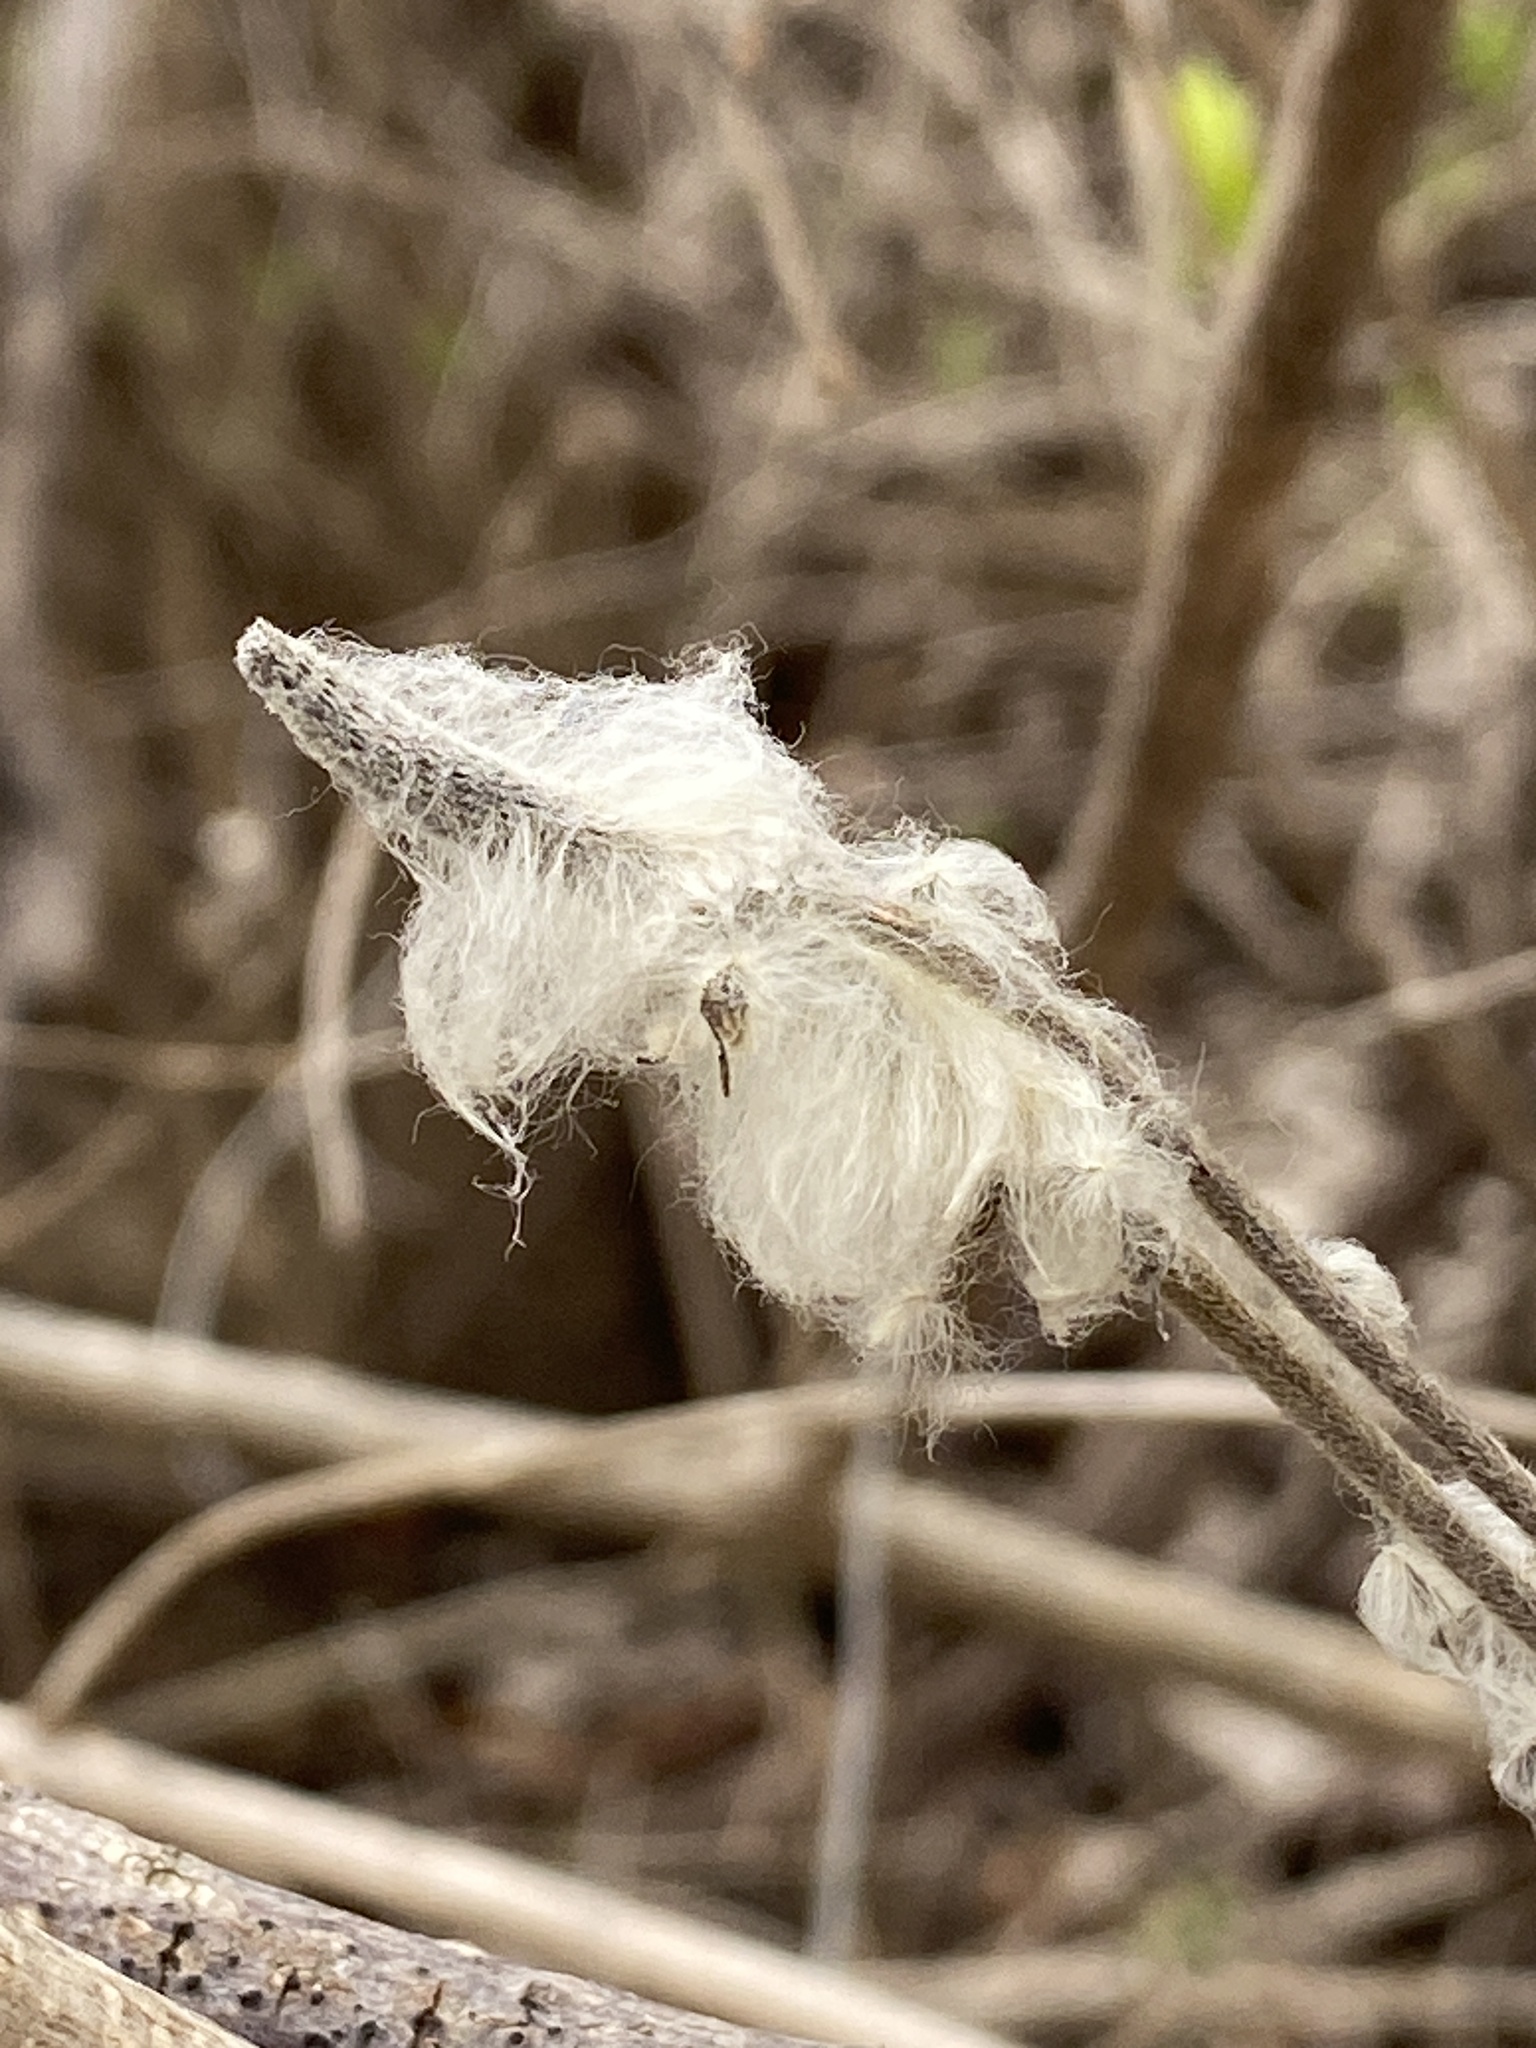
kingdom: Plantae
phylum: Tracheophyta
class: Magnoliopsida
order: Ranunculales
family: Ranunculaceae
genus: Anemone
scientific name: Anemone virginiana
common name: Tall anemone
